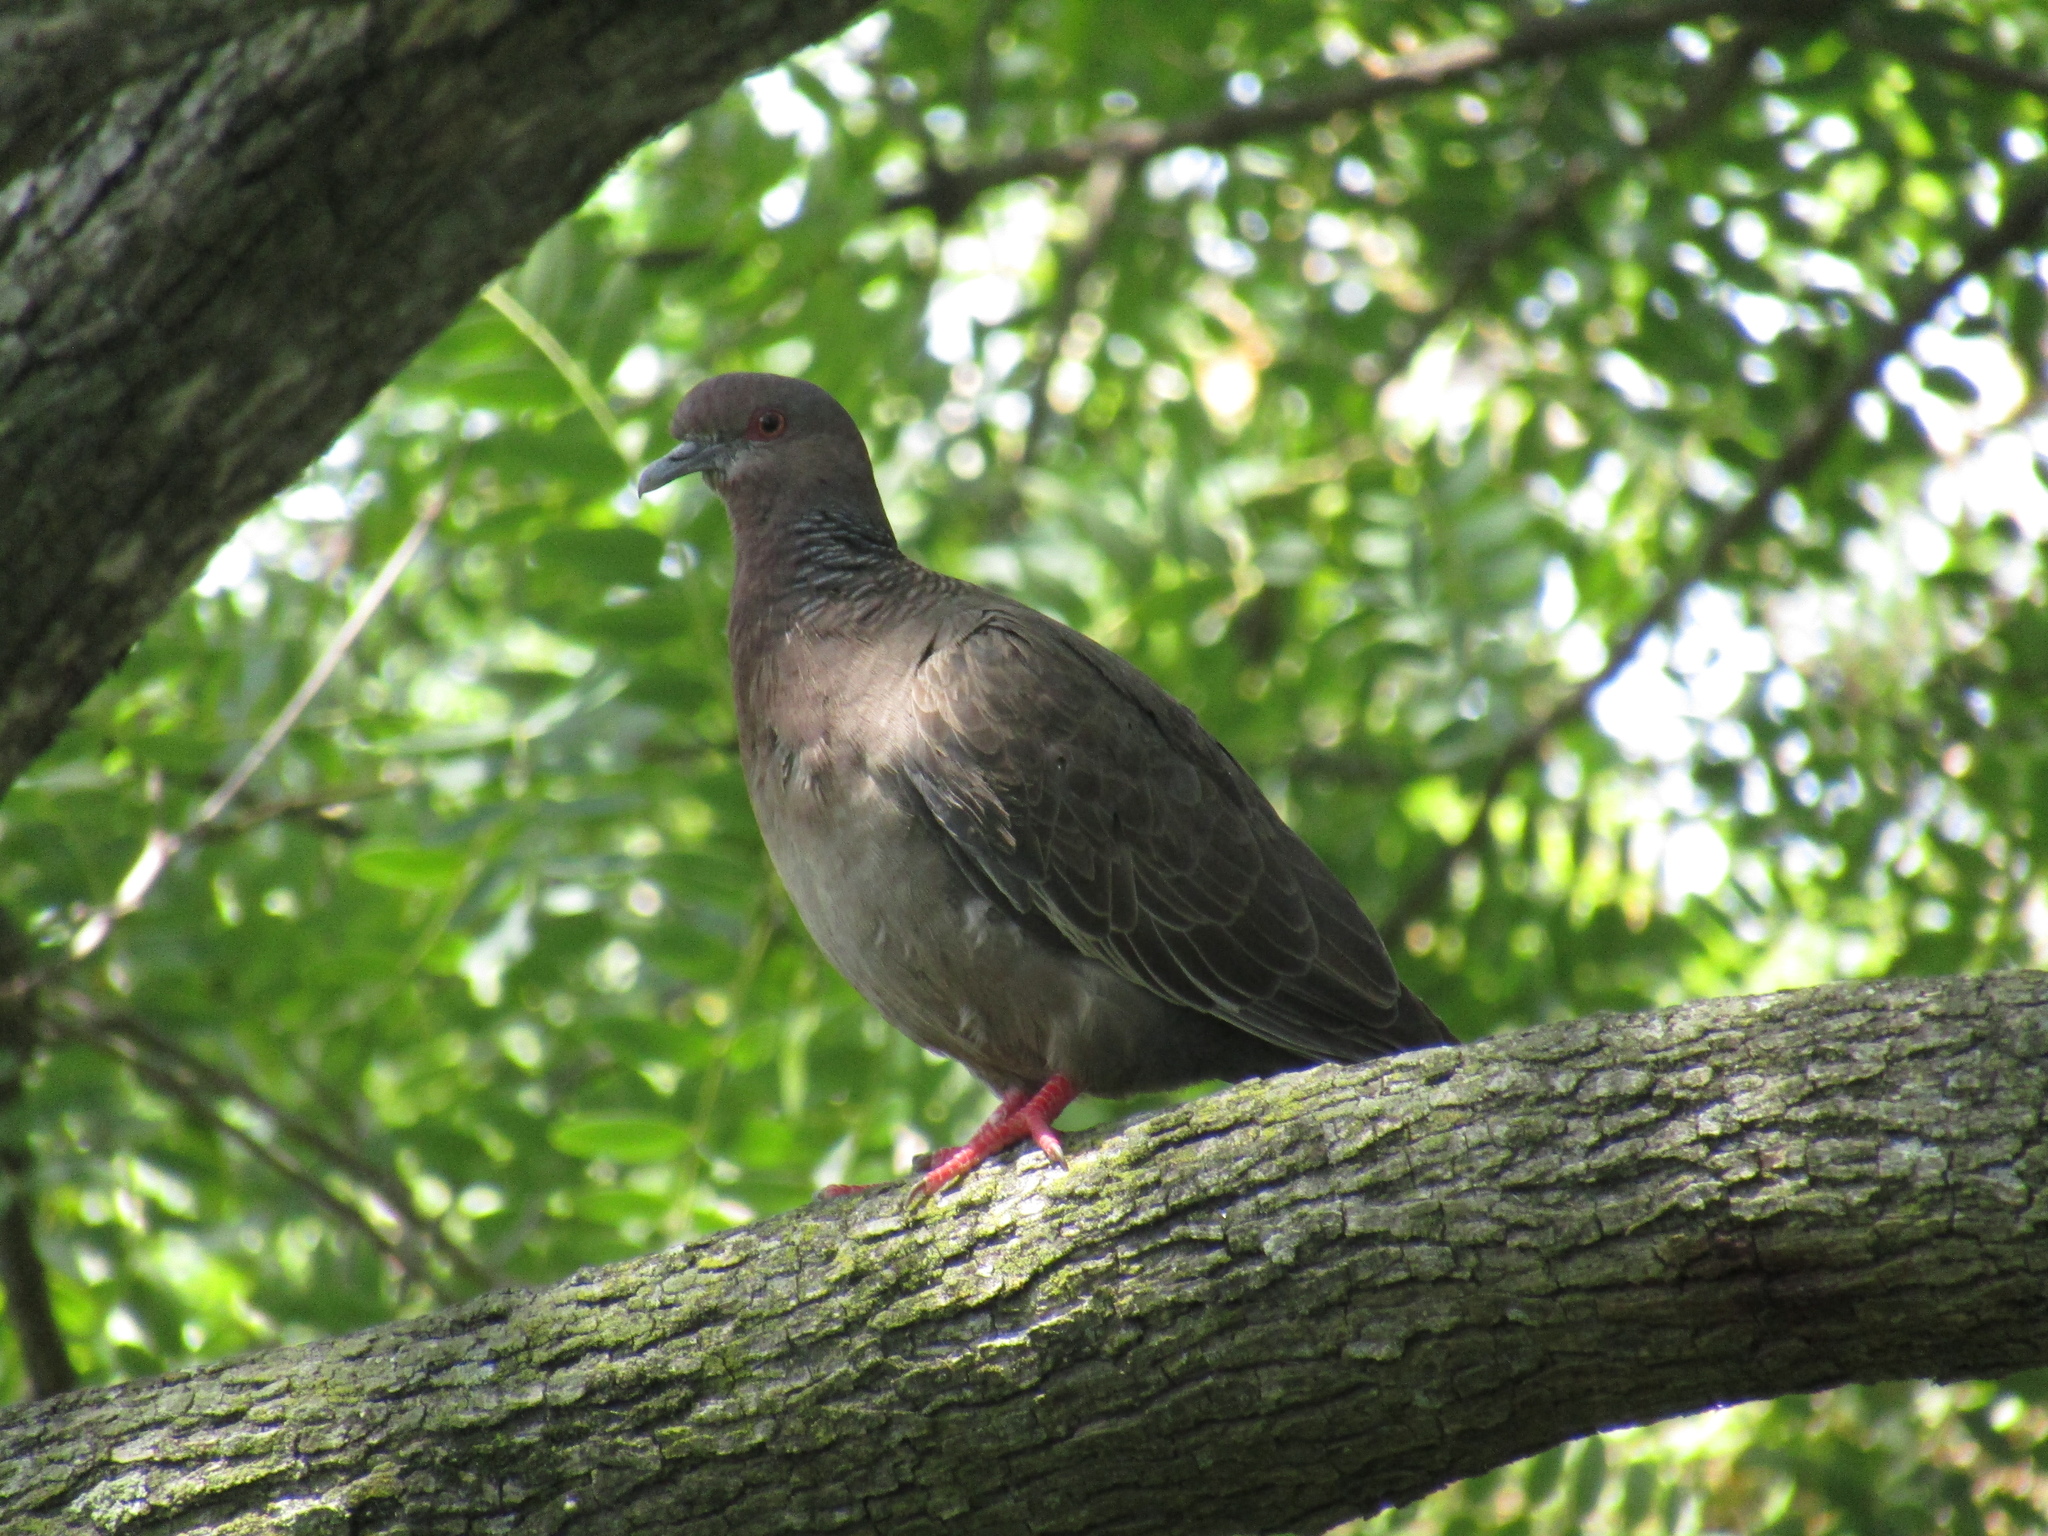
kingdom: Animalia
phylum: Chordata
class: Aves
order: Columbiformes
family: Columbidae
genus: Patagioenas
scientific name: Patagioenas picazuro
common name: Picazuro pigeon
